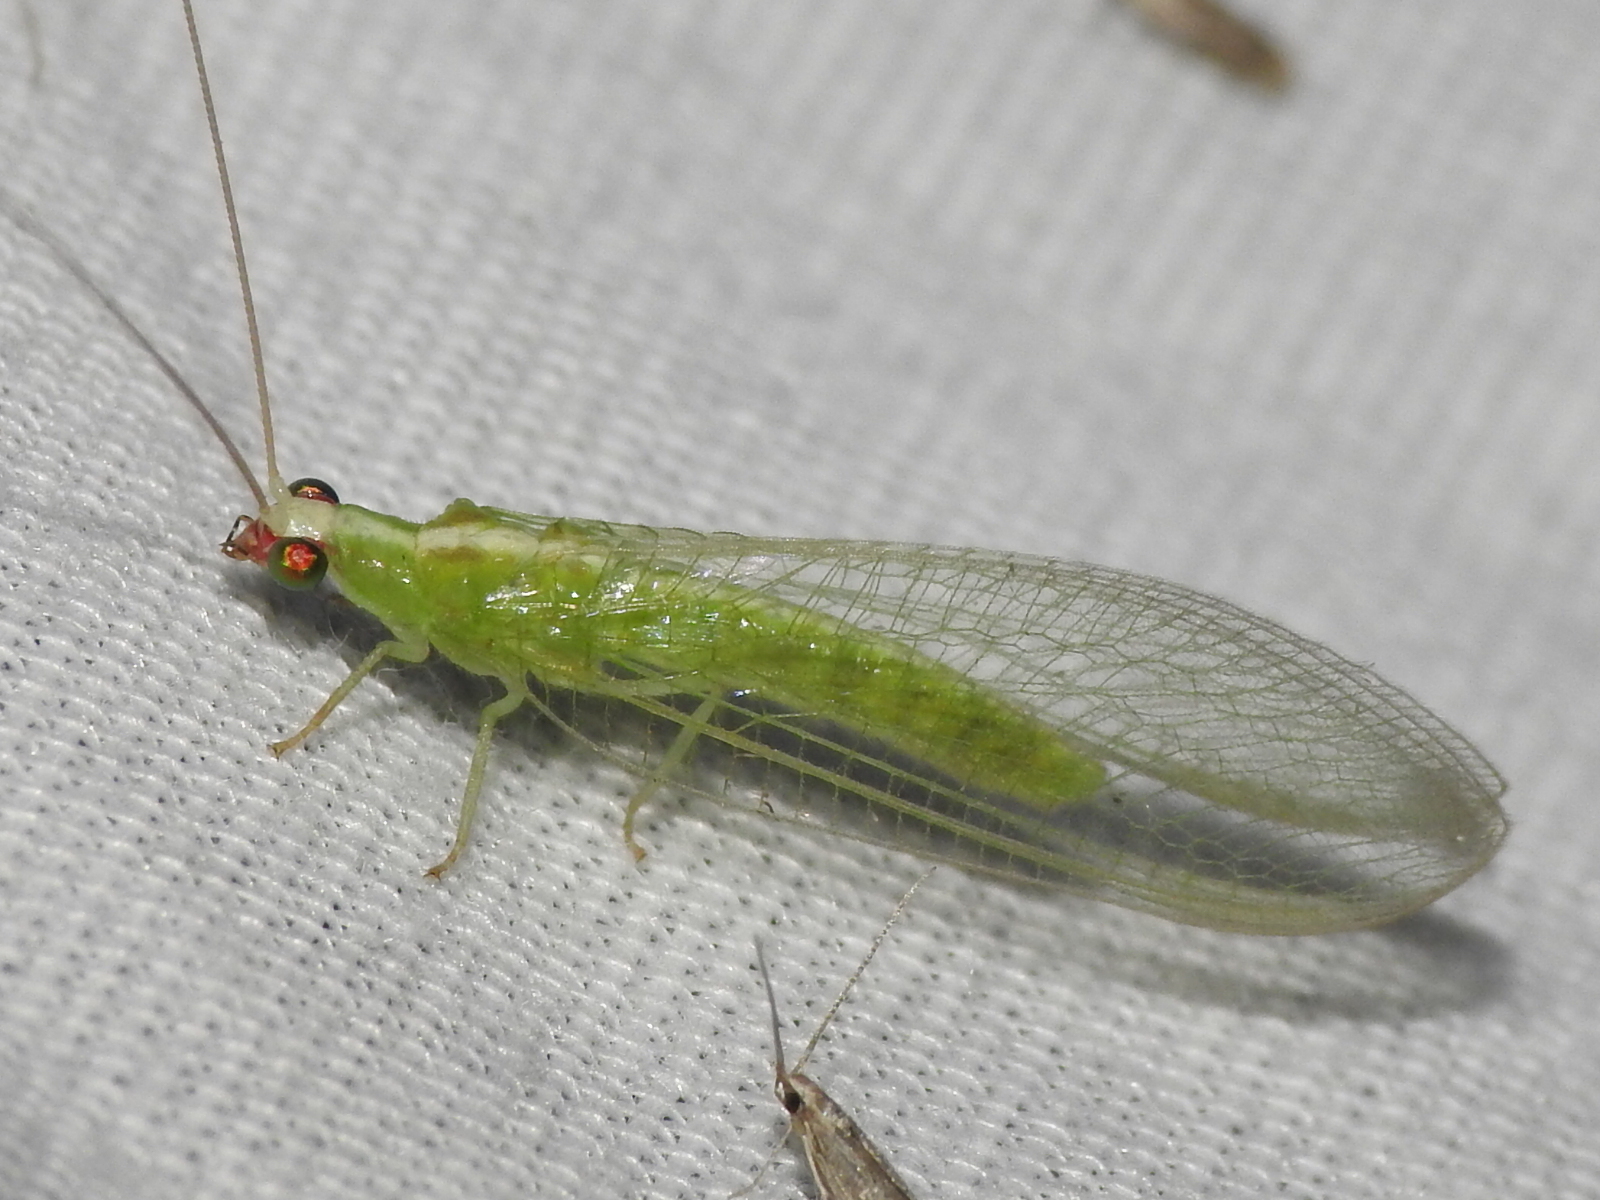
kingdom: Animalia
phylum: Arthropoda
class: Insecta
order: Neuroptera
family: Chrysopidae
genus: Chrysopodes
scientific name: Chrysopodes collaris
